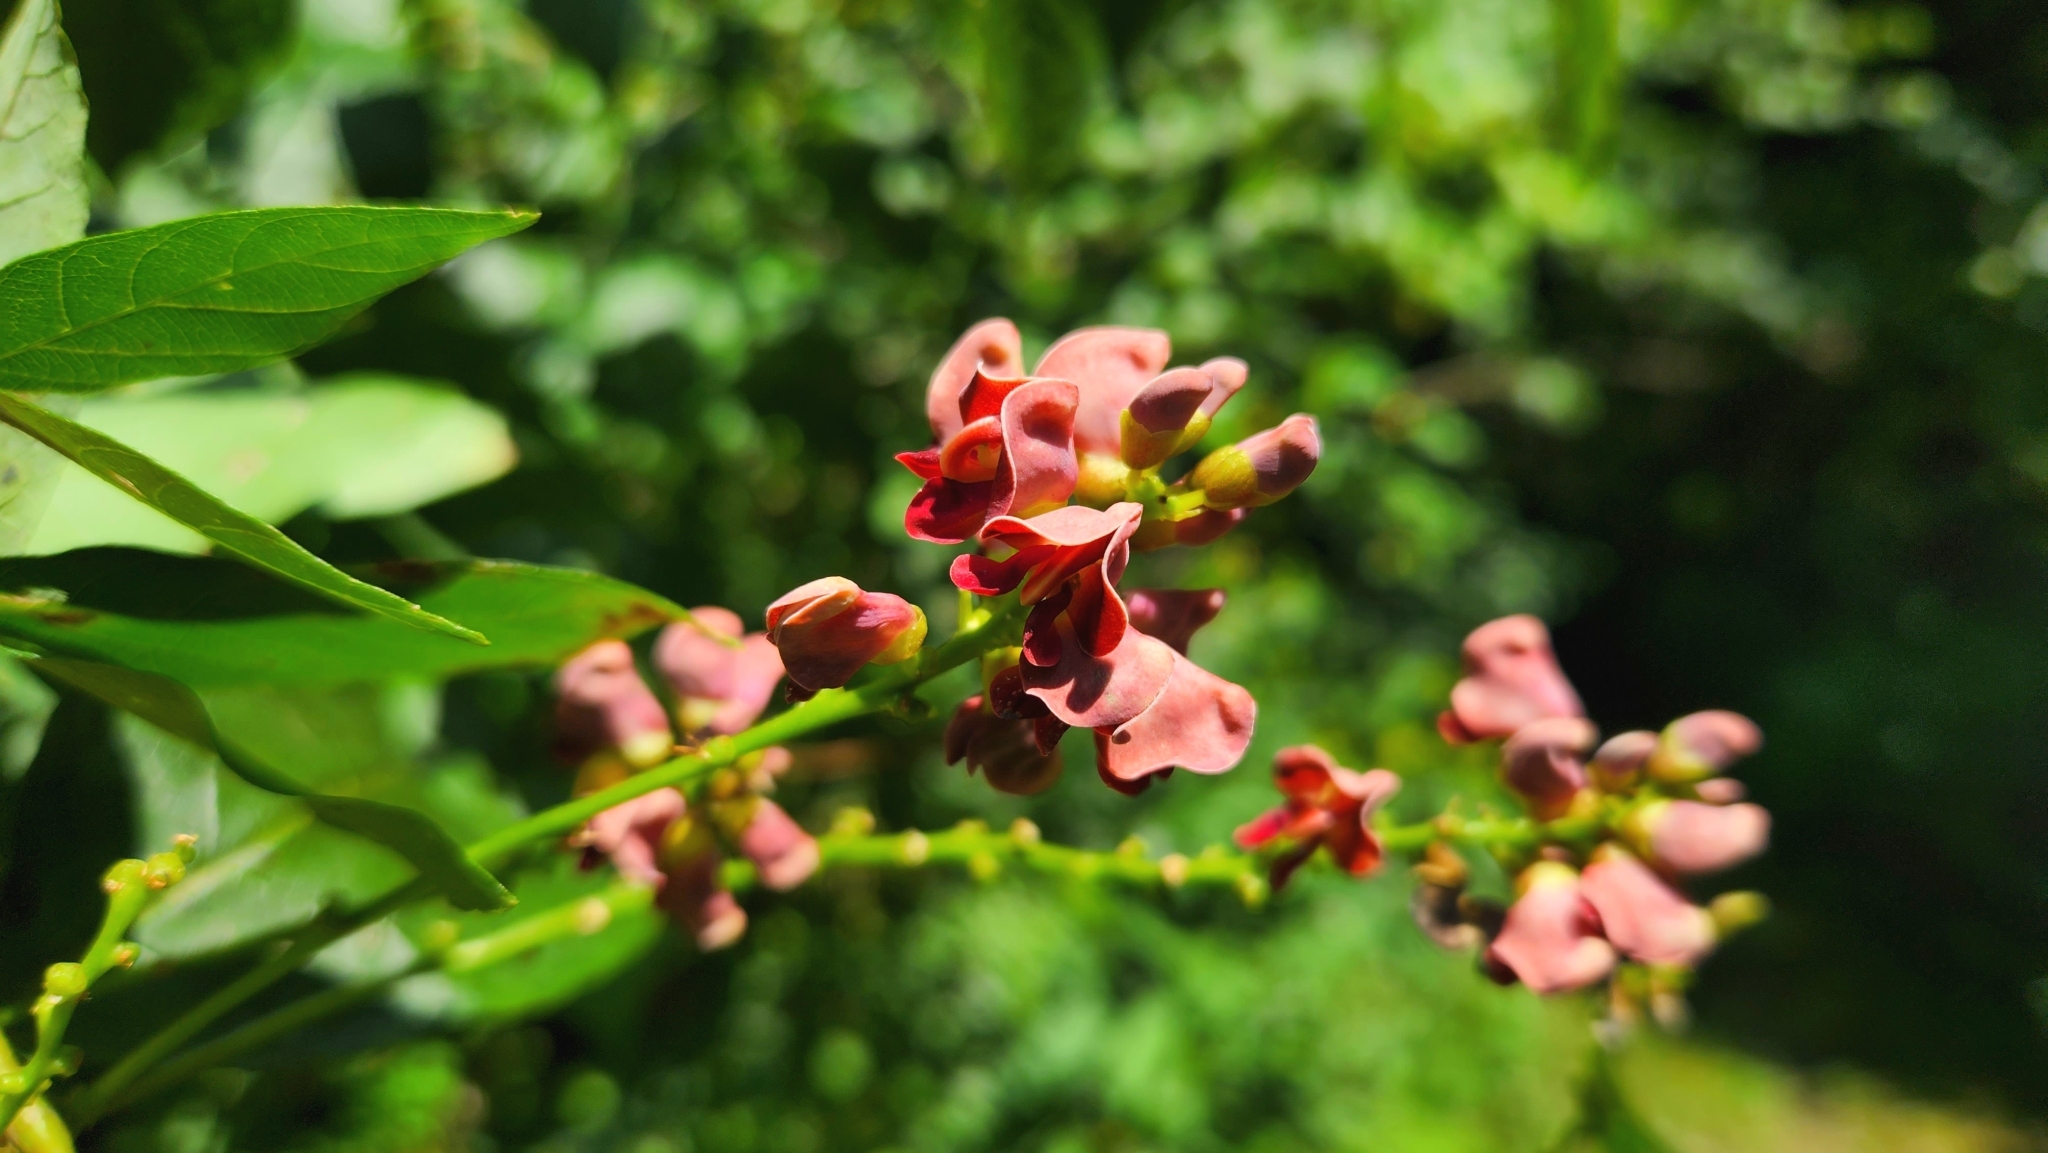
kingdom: Plantae
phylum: Tracheophyta
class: Magnoliopsida
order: Fabales
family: Fabaceae
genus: Apios
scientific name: Apios americana
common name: American potato-bean
